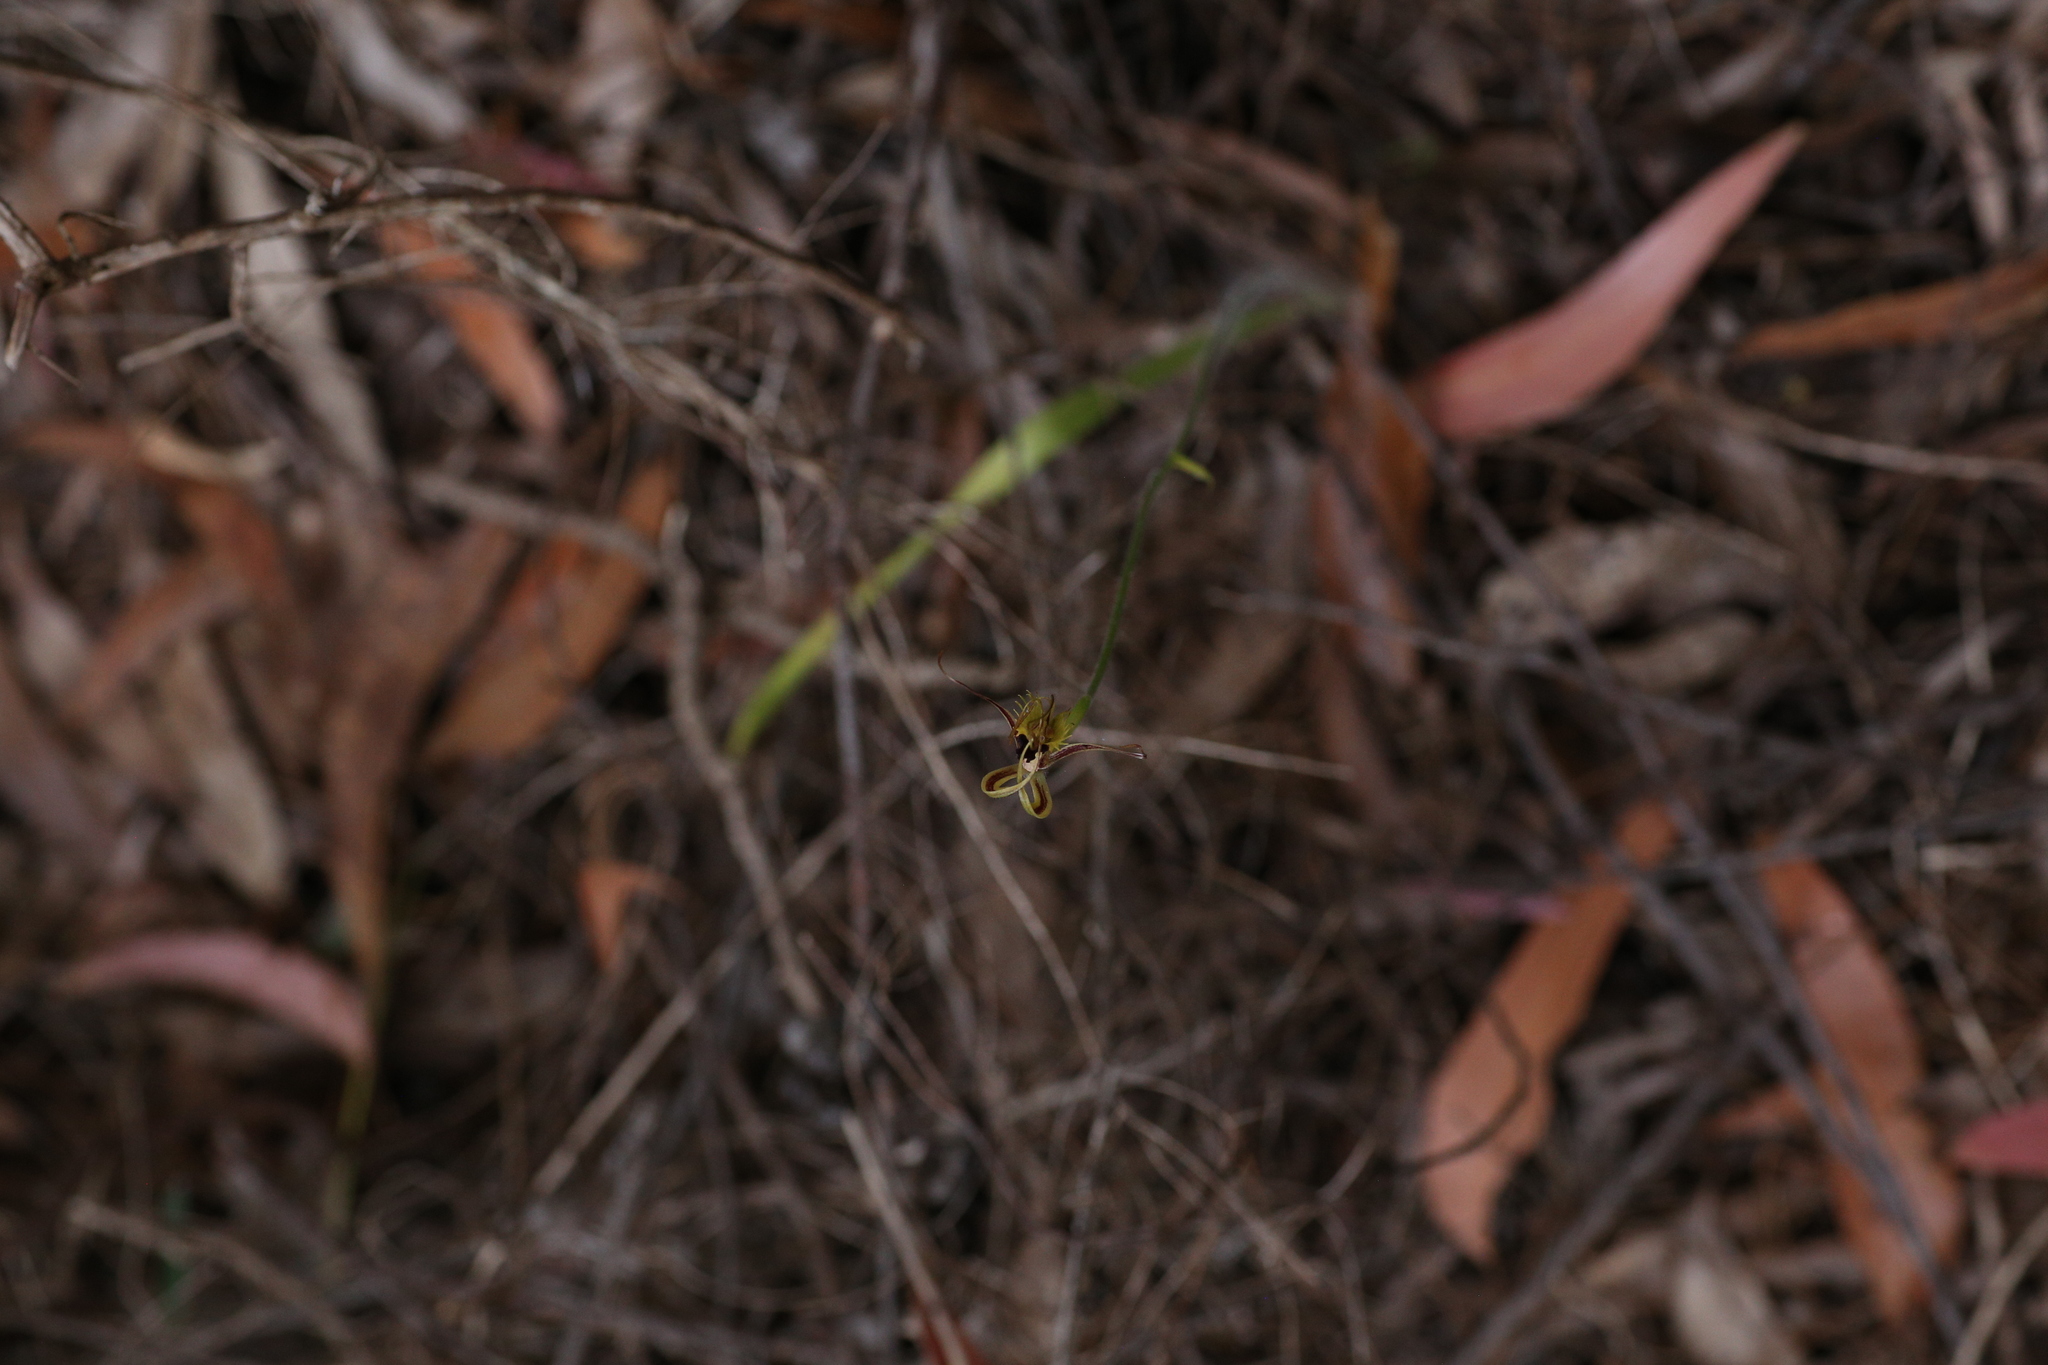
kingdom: Plantae
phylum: Tracheophyta
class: Liliopsida
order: Asparagales
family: Orchidaceae
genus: Caladenia
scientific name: Caladenia attingens
